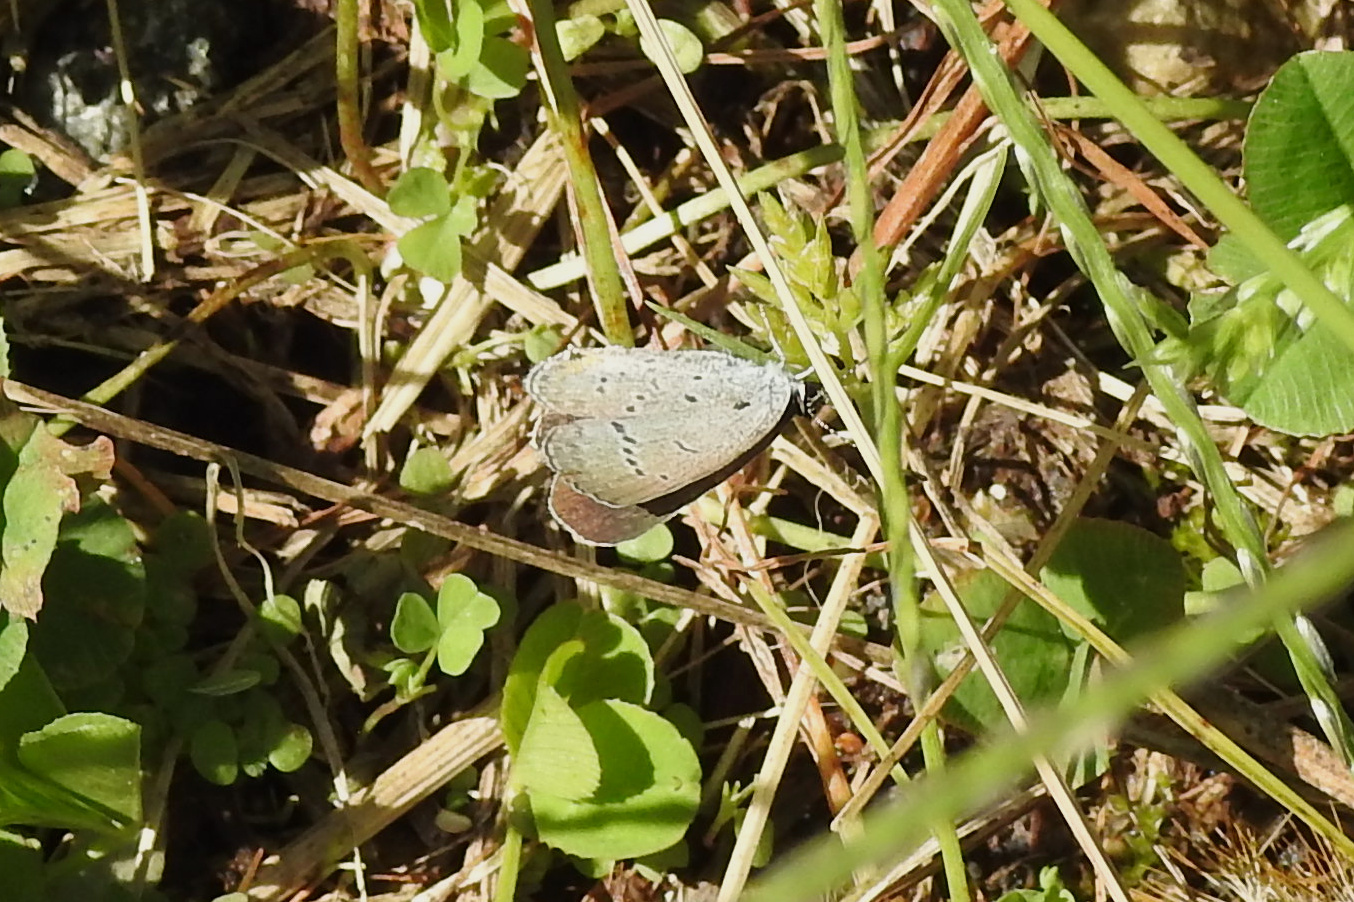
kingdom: Animalia
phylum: Arthropoda
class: Insecta
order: Lepidoptera
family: Lycaenidae
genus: Elkalyce
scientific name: Elkalyce comyntas
